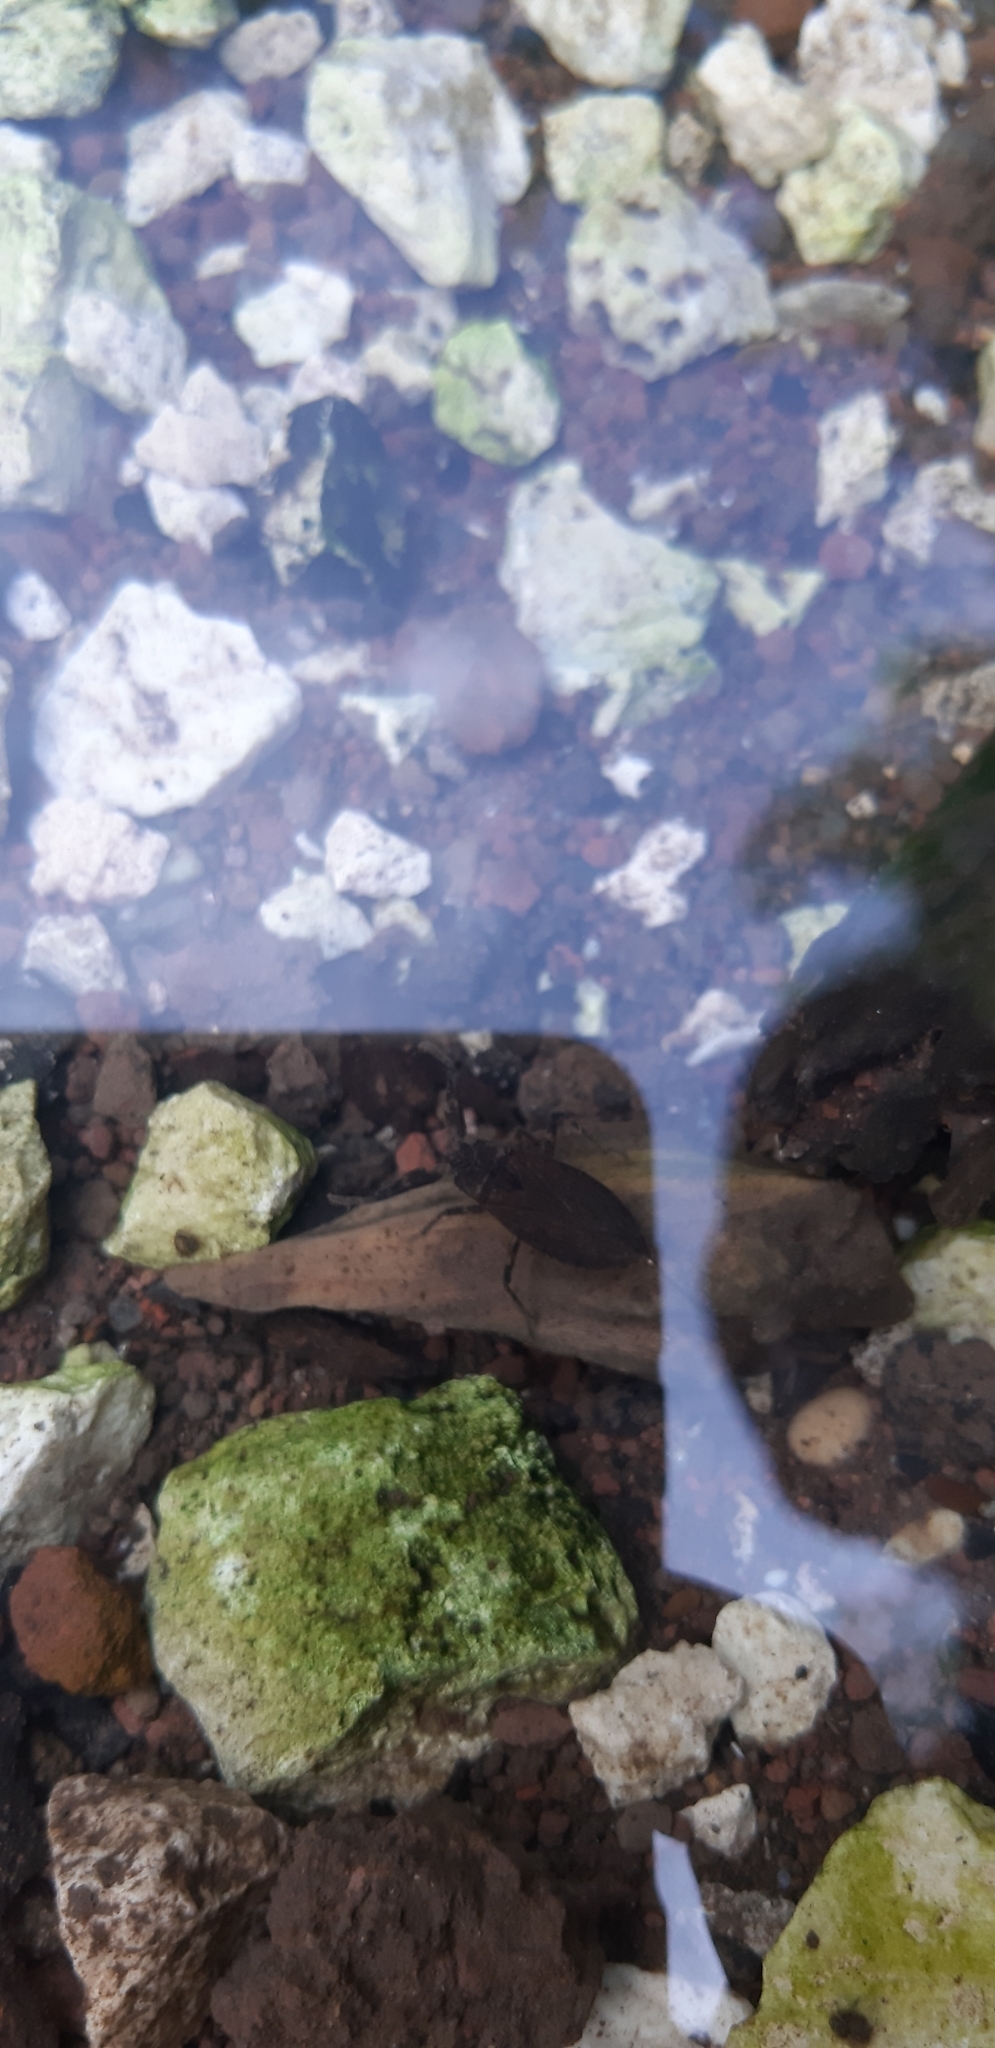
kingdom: Animalia
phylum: Arthropoda
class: Insecta
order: Hemiptera
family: Nepidae
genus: Nepa
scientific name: Nepa cinerea
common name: Water scorpion
